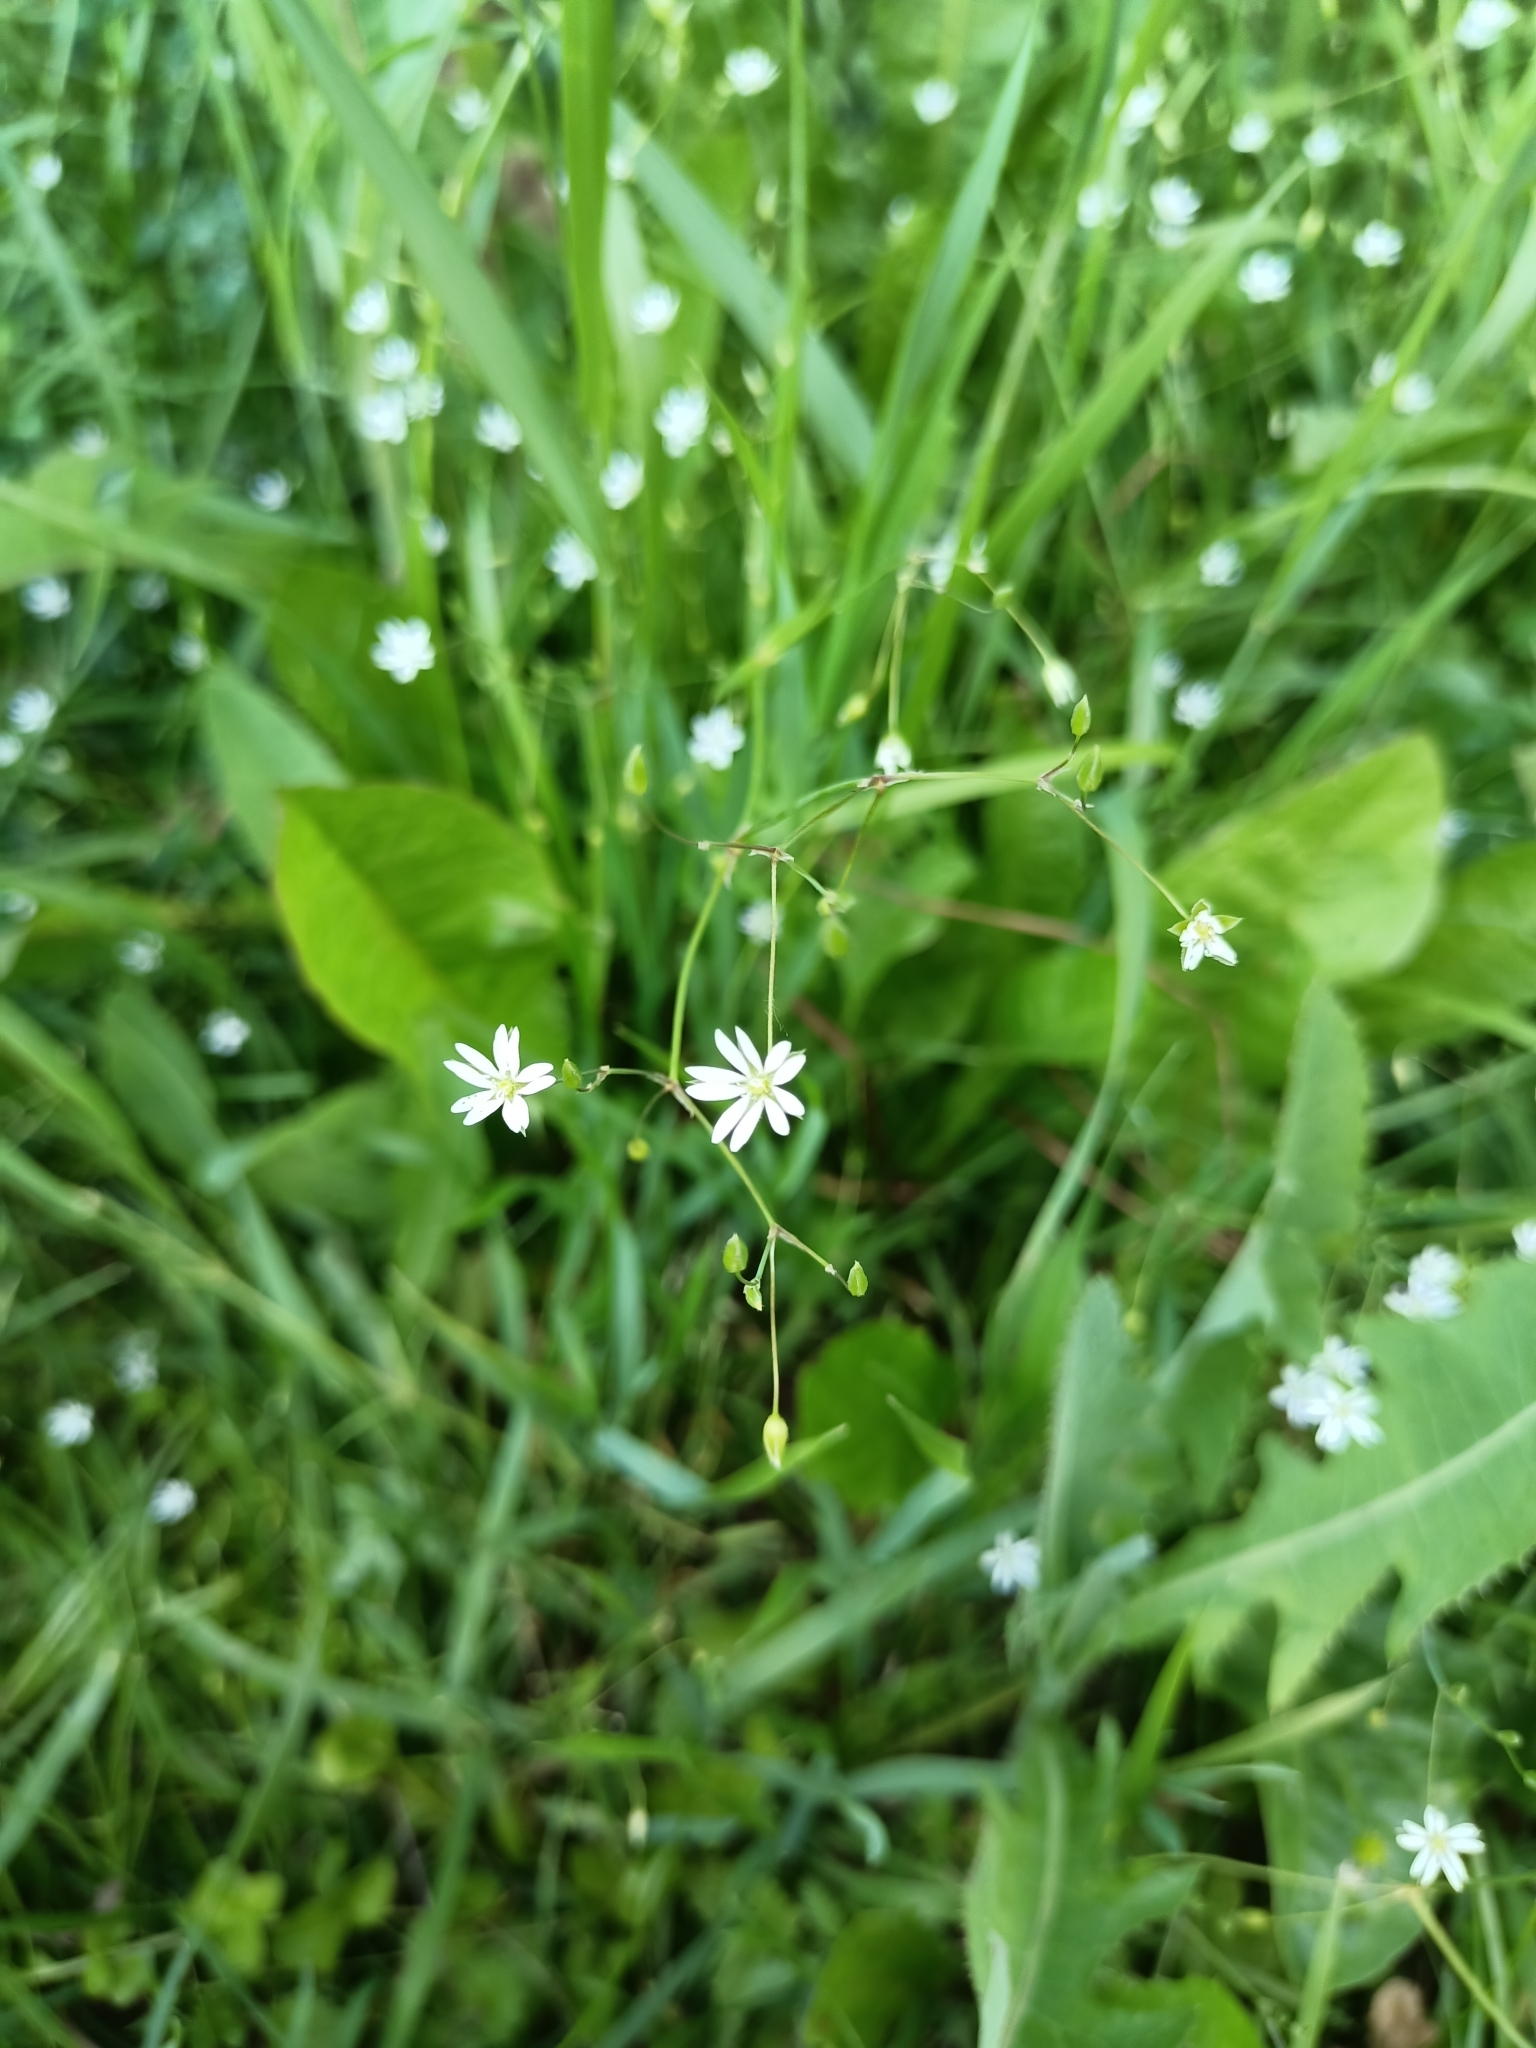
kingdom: Plantae
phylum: Tracheophyta
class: Magnoliopsida
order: Caryophyllales
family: Caryophyllaceae
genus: Stellaria
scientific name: Stellaria graminea
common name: Grass-like starwort
